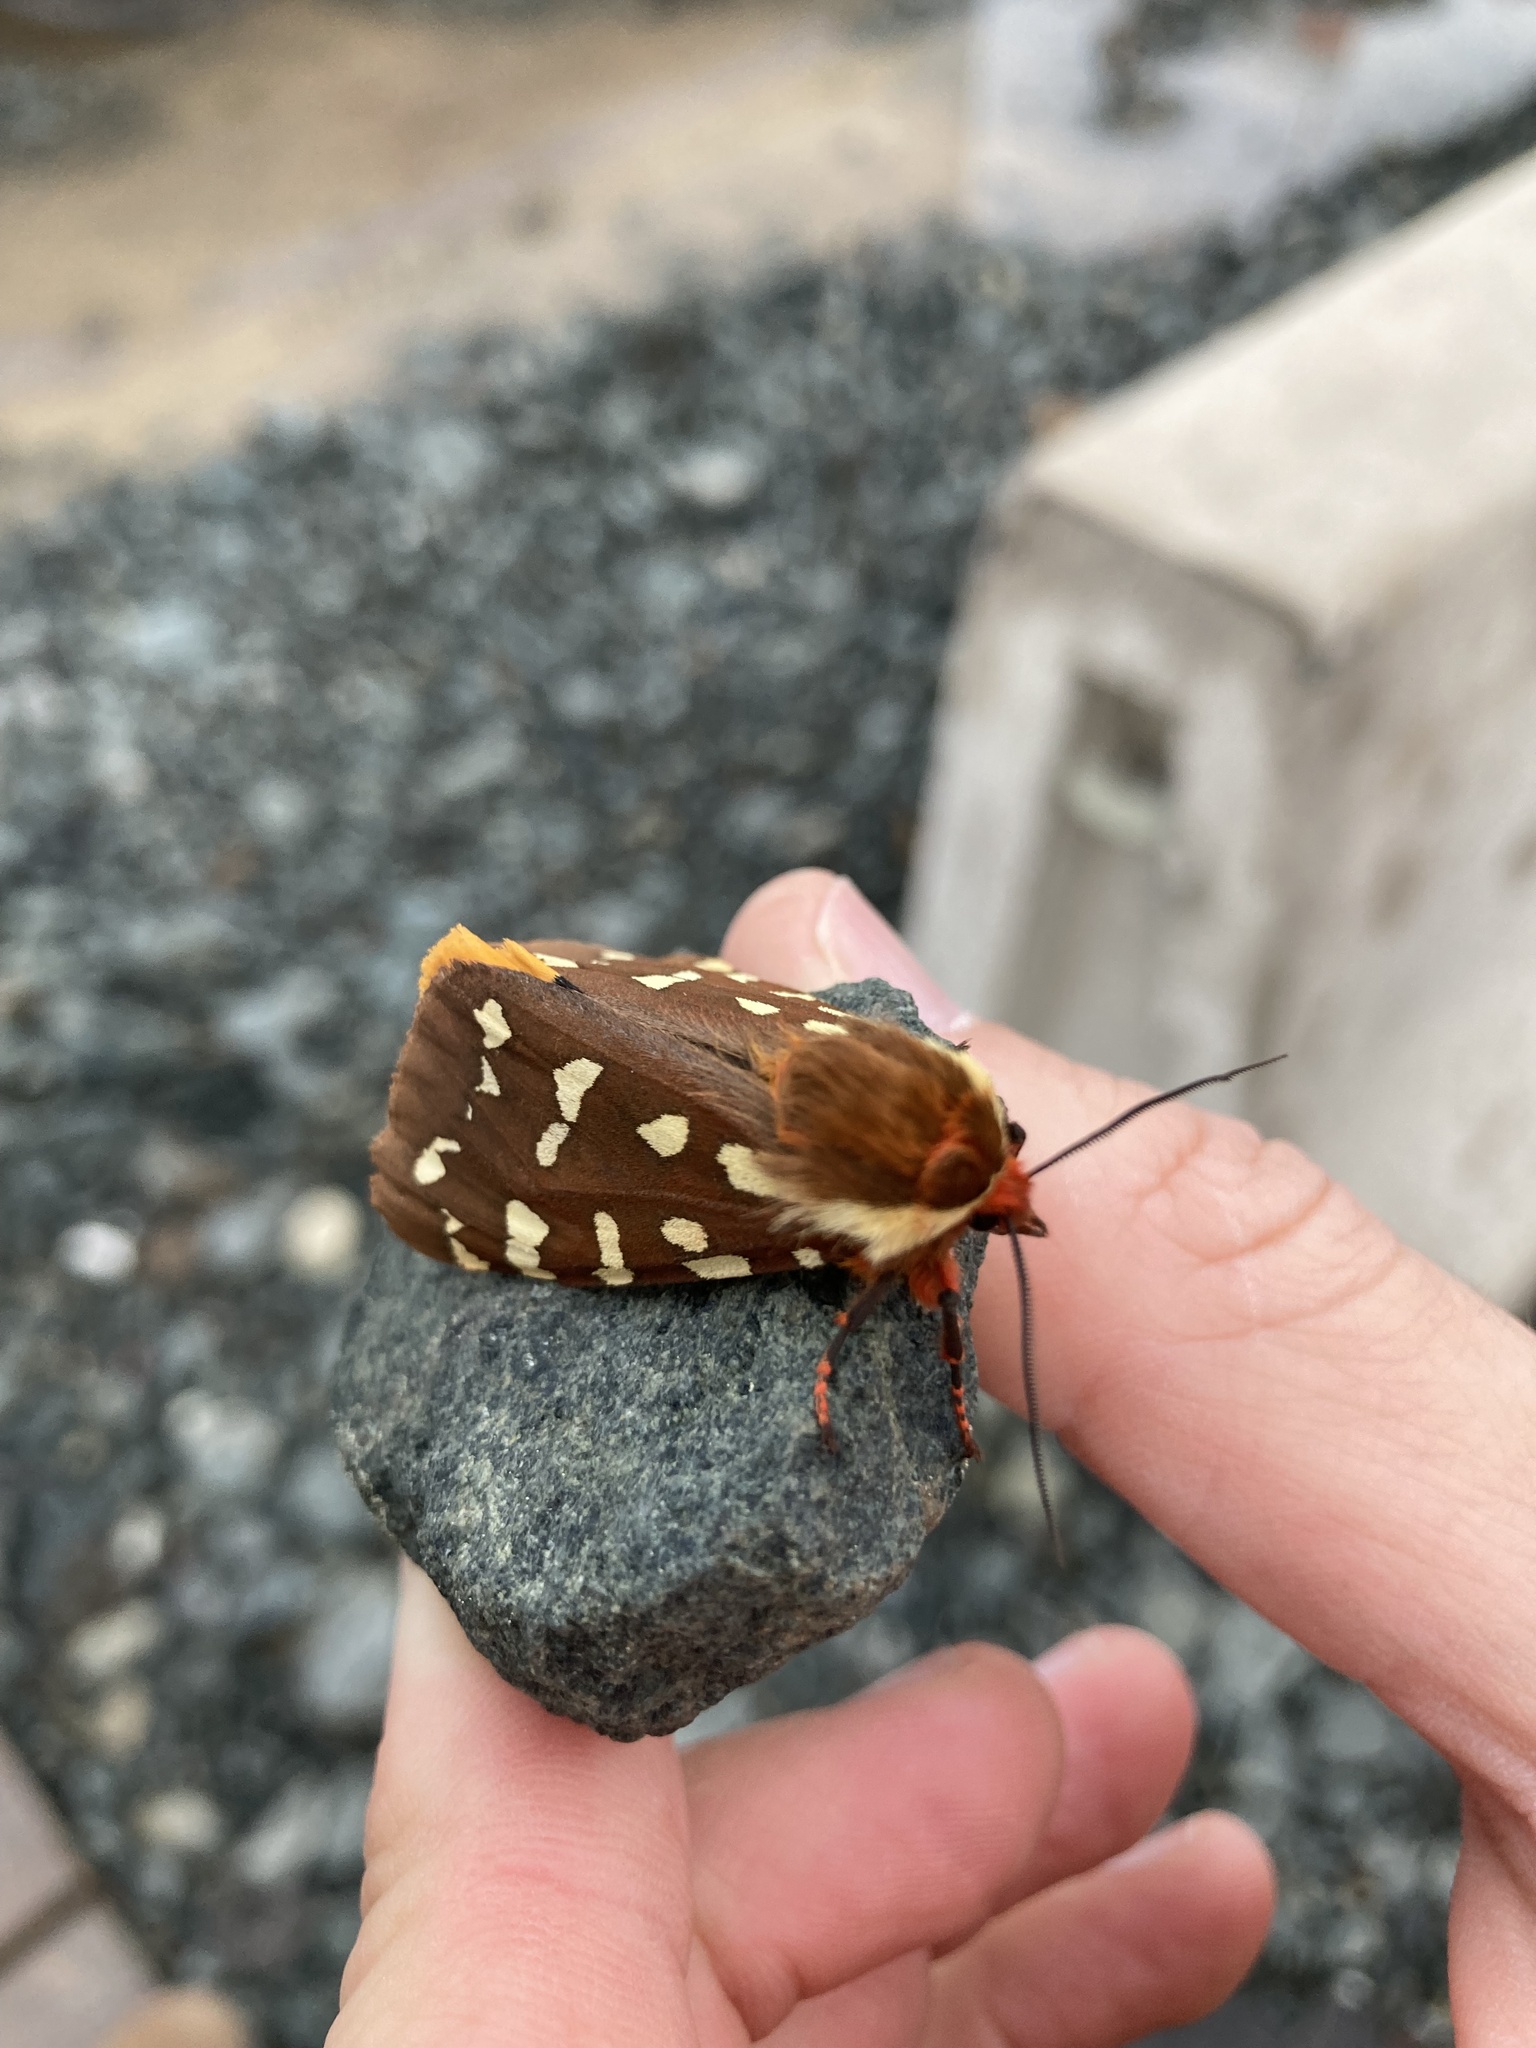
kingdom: Animalia
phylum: Arthropoda
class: Insecta
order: Lepidoptera
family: Erebidae
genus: Arctia
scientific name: Arctia parthenos
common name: St. lawrence tiger moth
